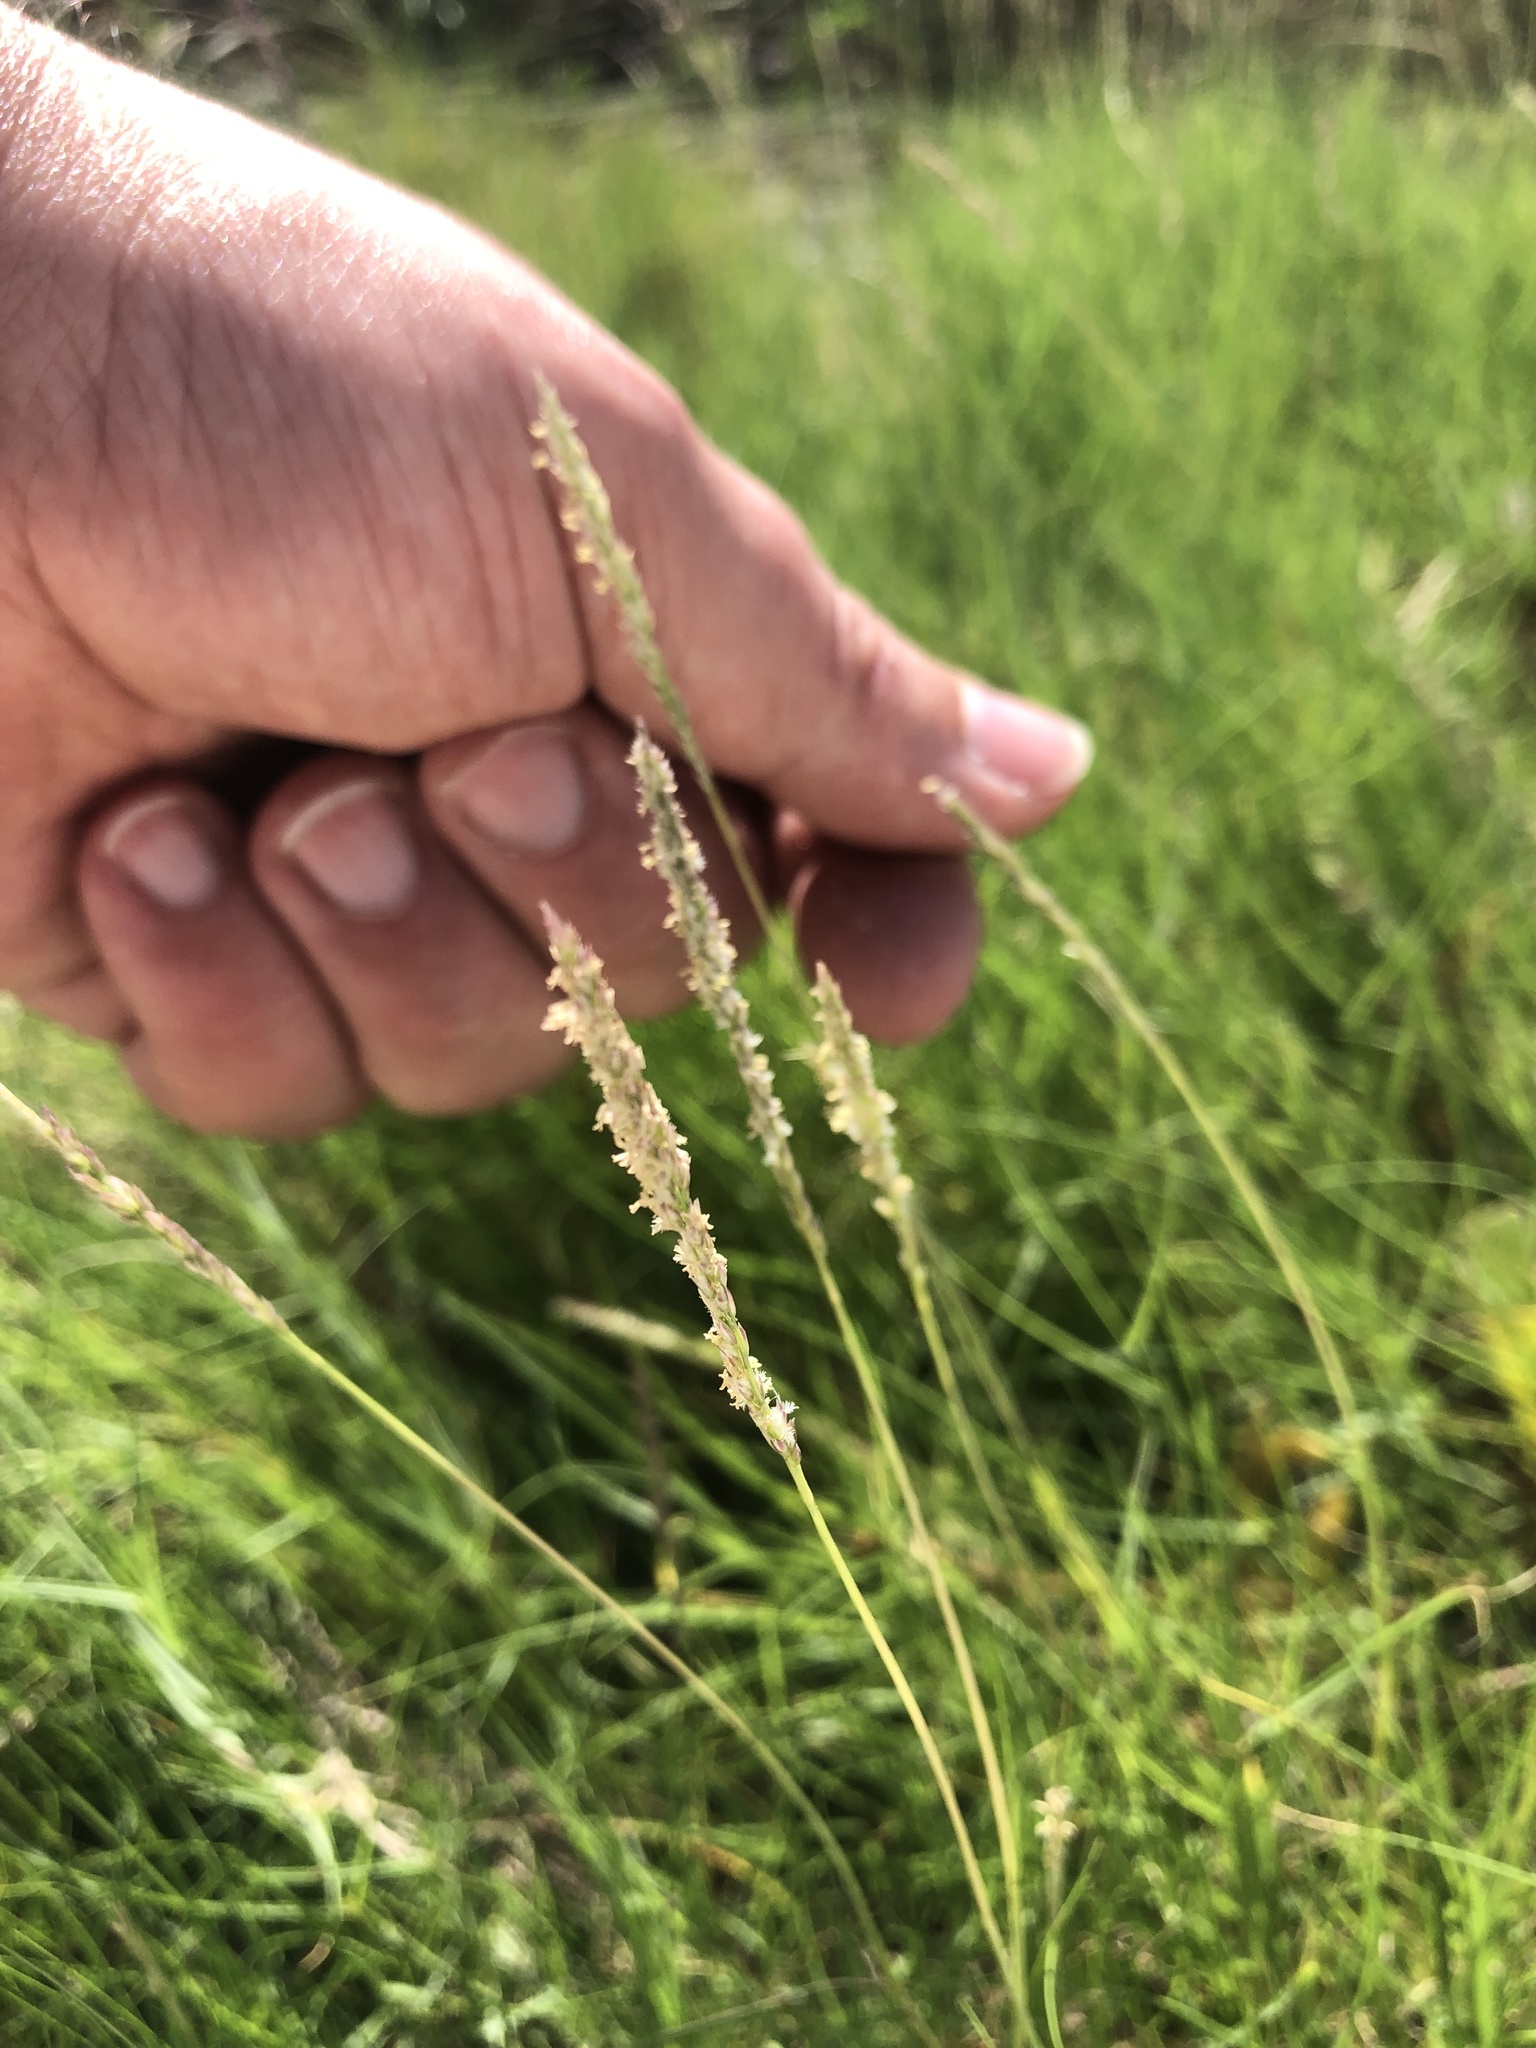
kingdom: Plantae
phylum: Tracheophyta
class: Liliopsida
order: Poales
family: Poaceae
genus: Sporobolus
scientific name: Sporobolus virginicus
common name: Beach dropseed
